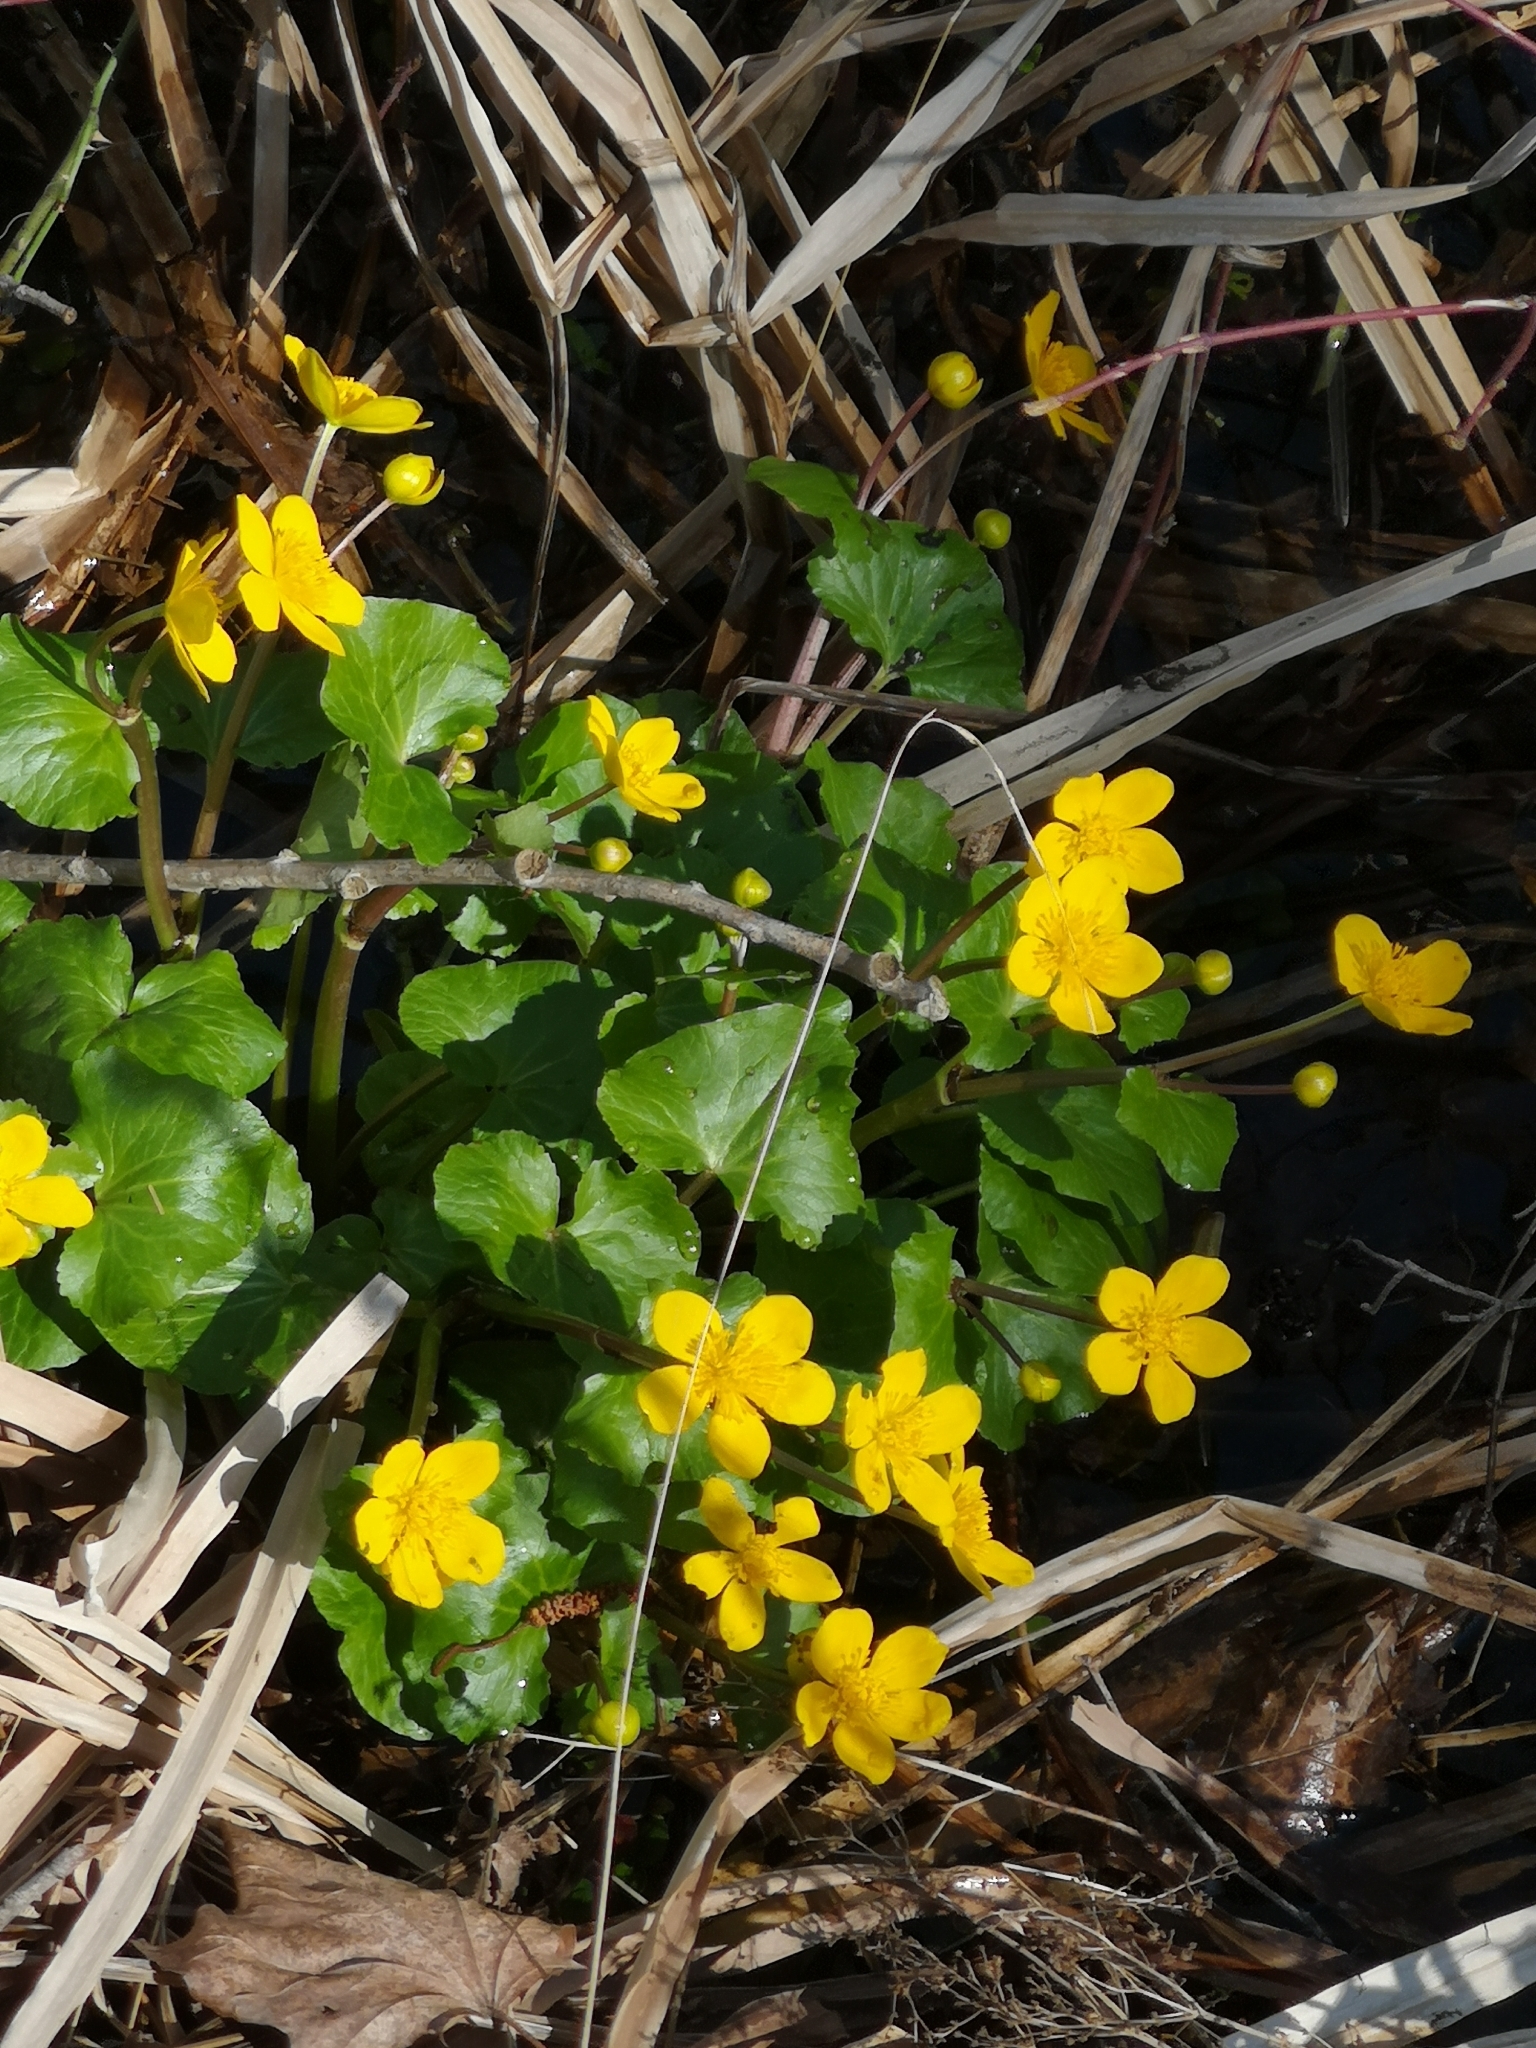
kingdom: Plantae
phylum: Tracheophyta
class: Magnoliopsida
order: Ranunculales
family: Ranunculaceae
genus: Caltha
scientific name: Caltha palustris
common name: Marsh marigold
